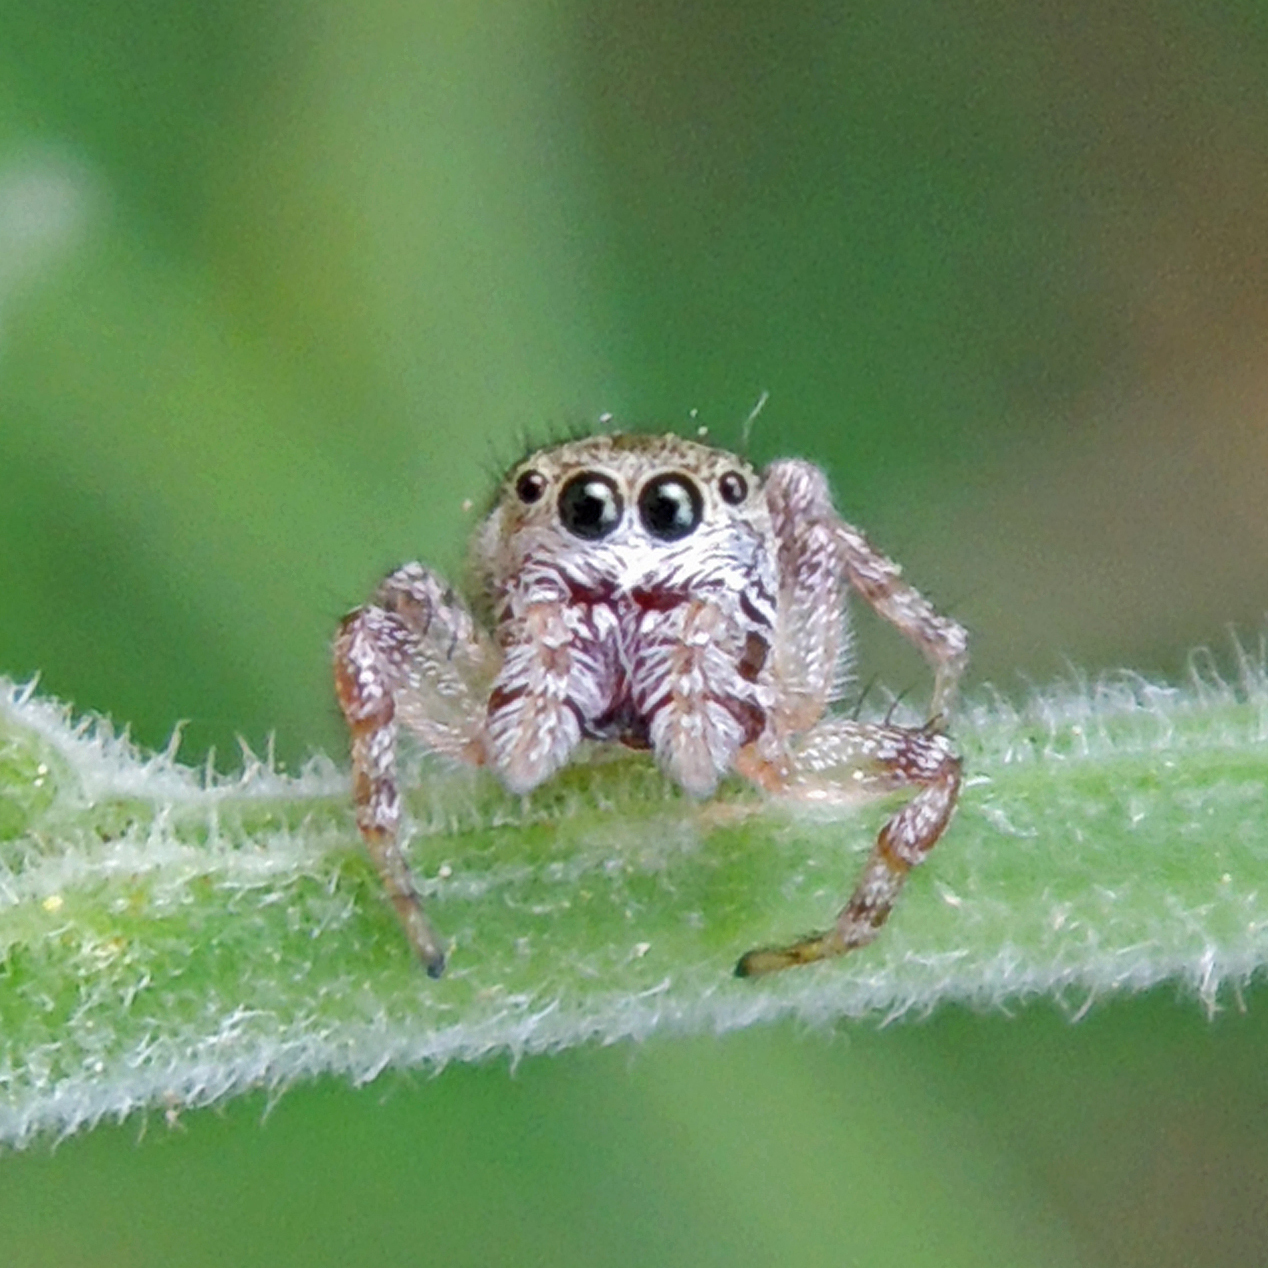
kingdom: Animalia
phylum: Arthropoda
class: Arachnida
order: Araneae
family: Salticidae
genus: Pelegrina
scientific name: Pelegrina proterva
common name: Common white-cheeked jumping spider
